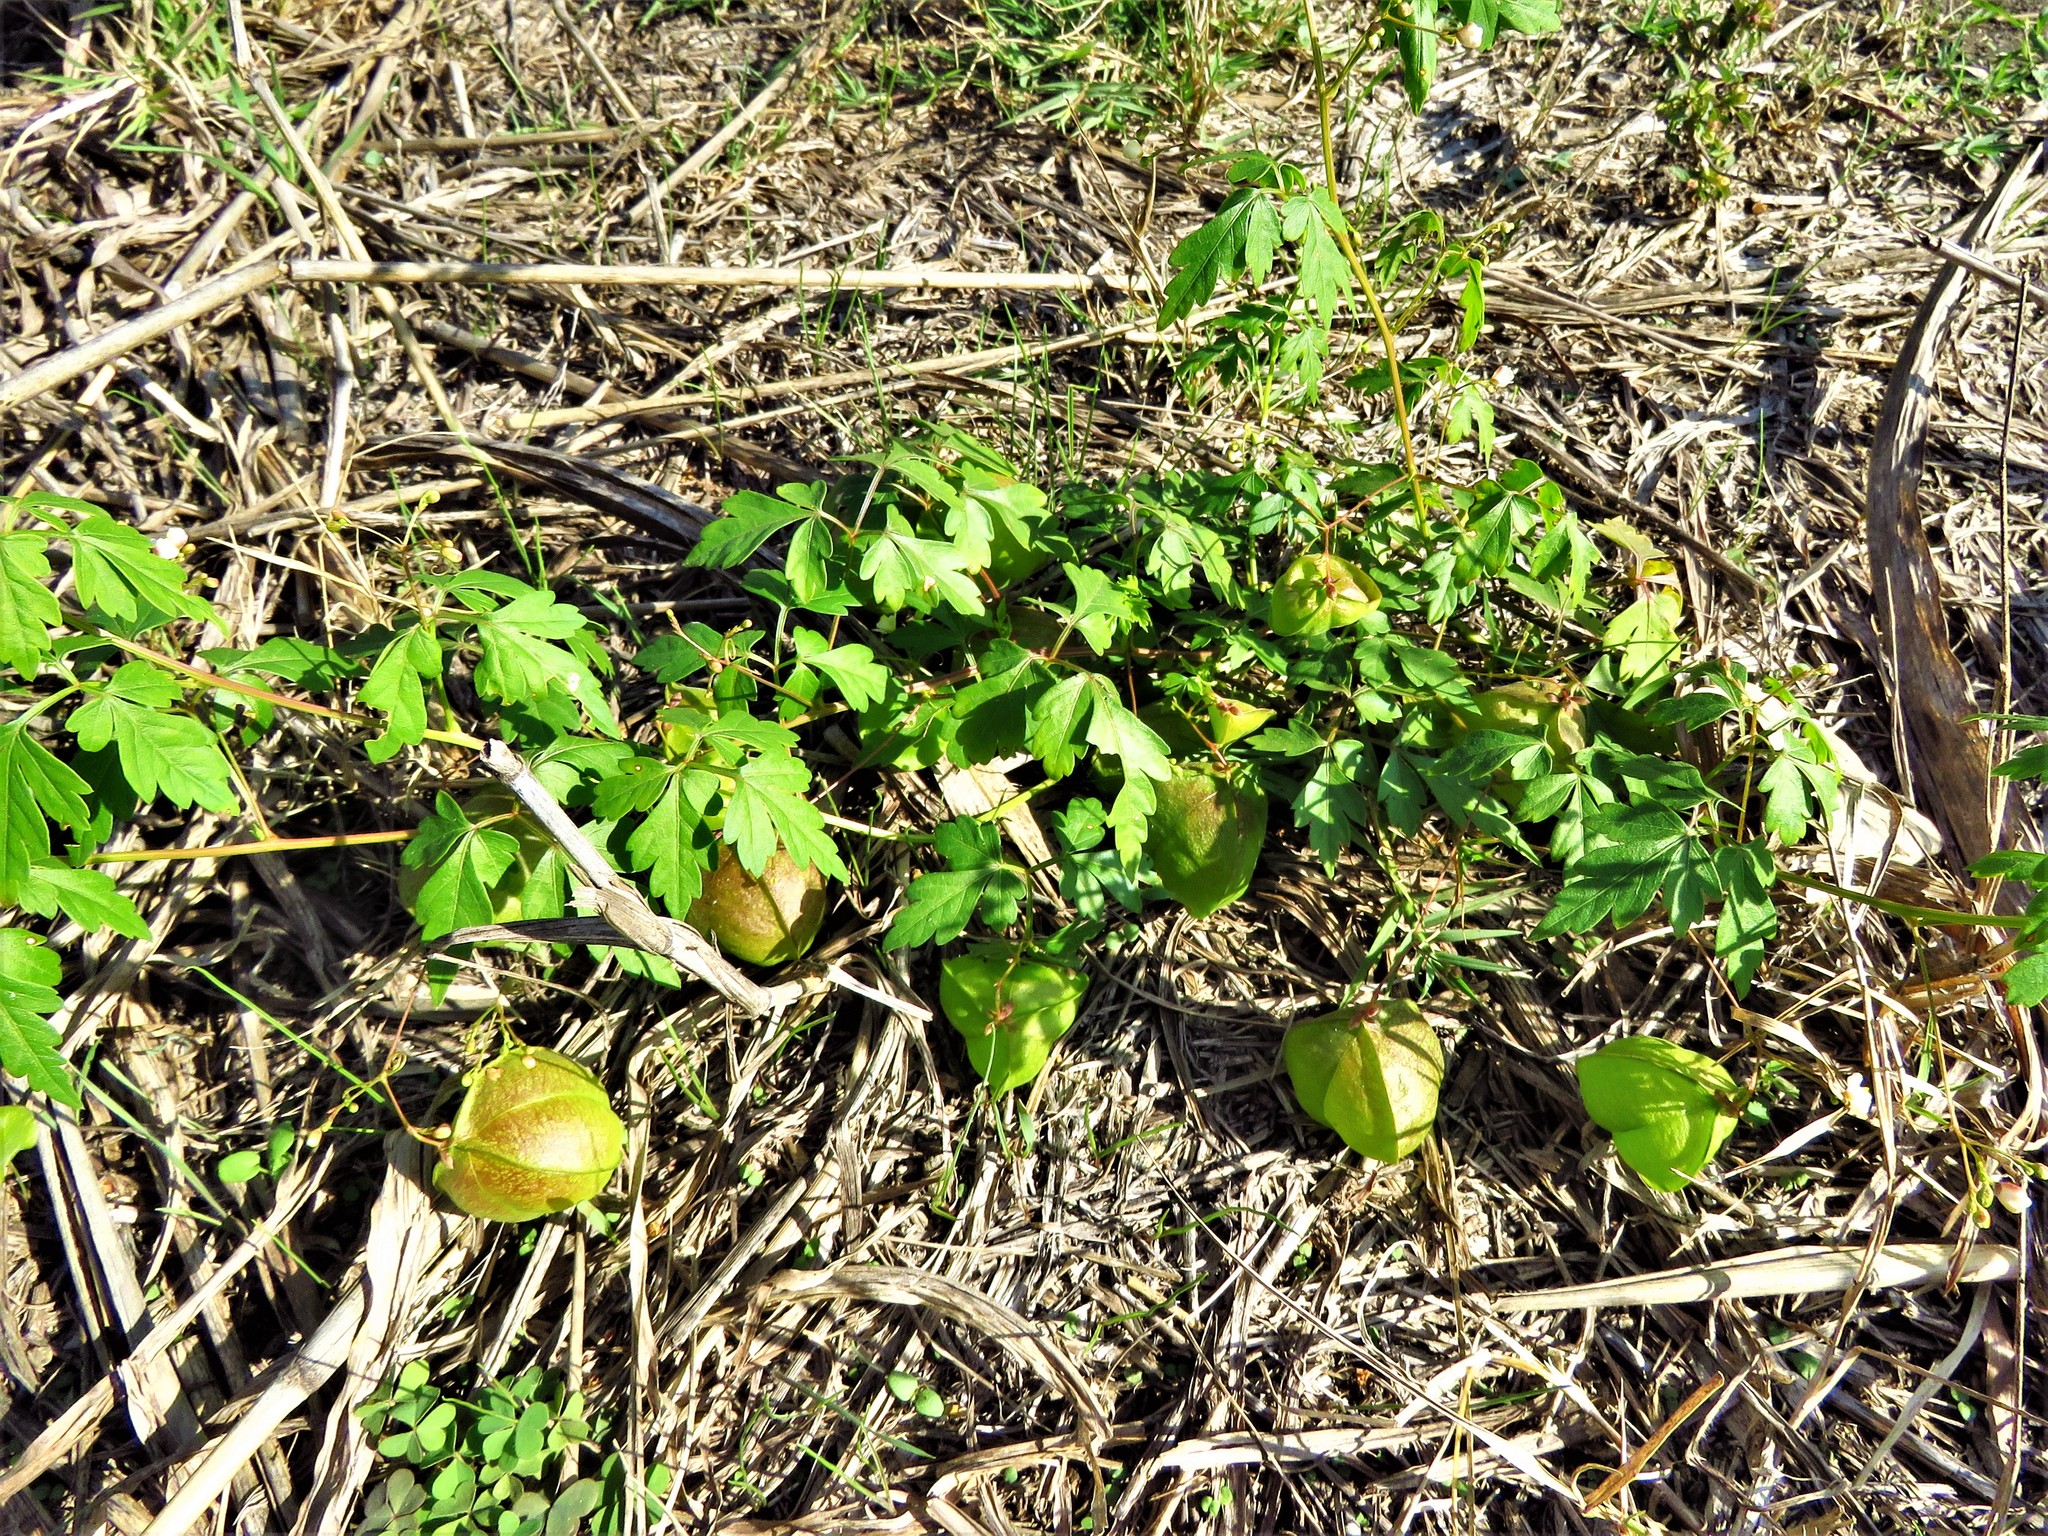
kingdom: Plantae
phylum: Tracheophyta
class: Magnoliopsida
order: Sapindales
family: Sapindaceae
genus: Cardiospermum
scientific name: Cardiospermum halicacabum
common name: Balloon vine
